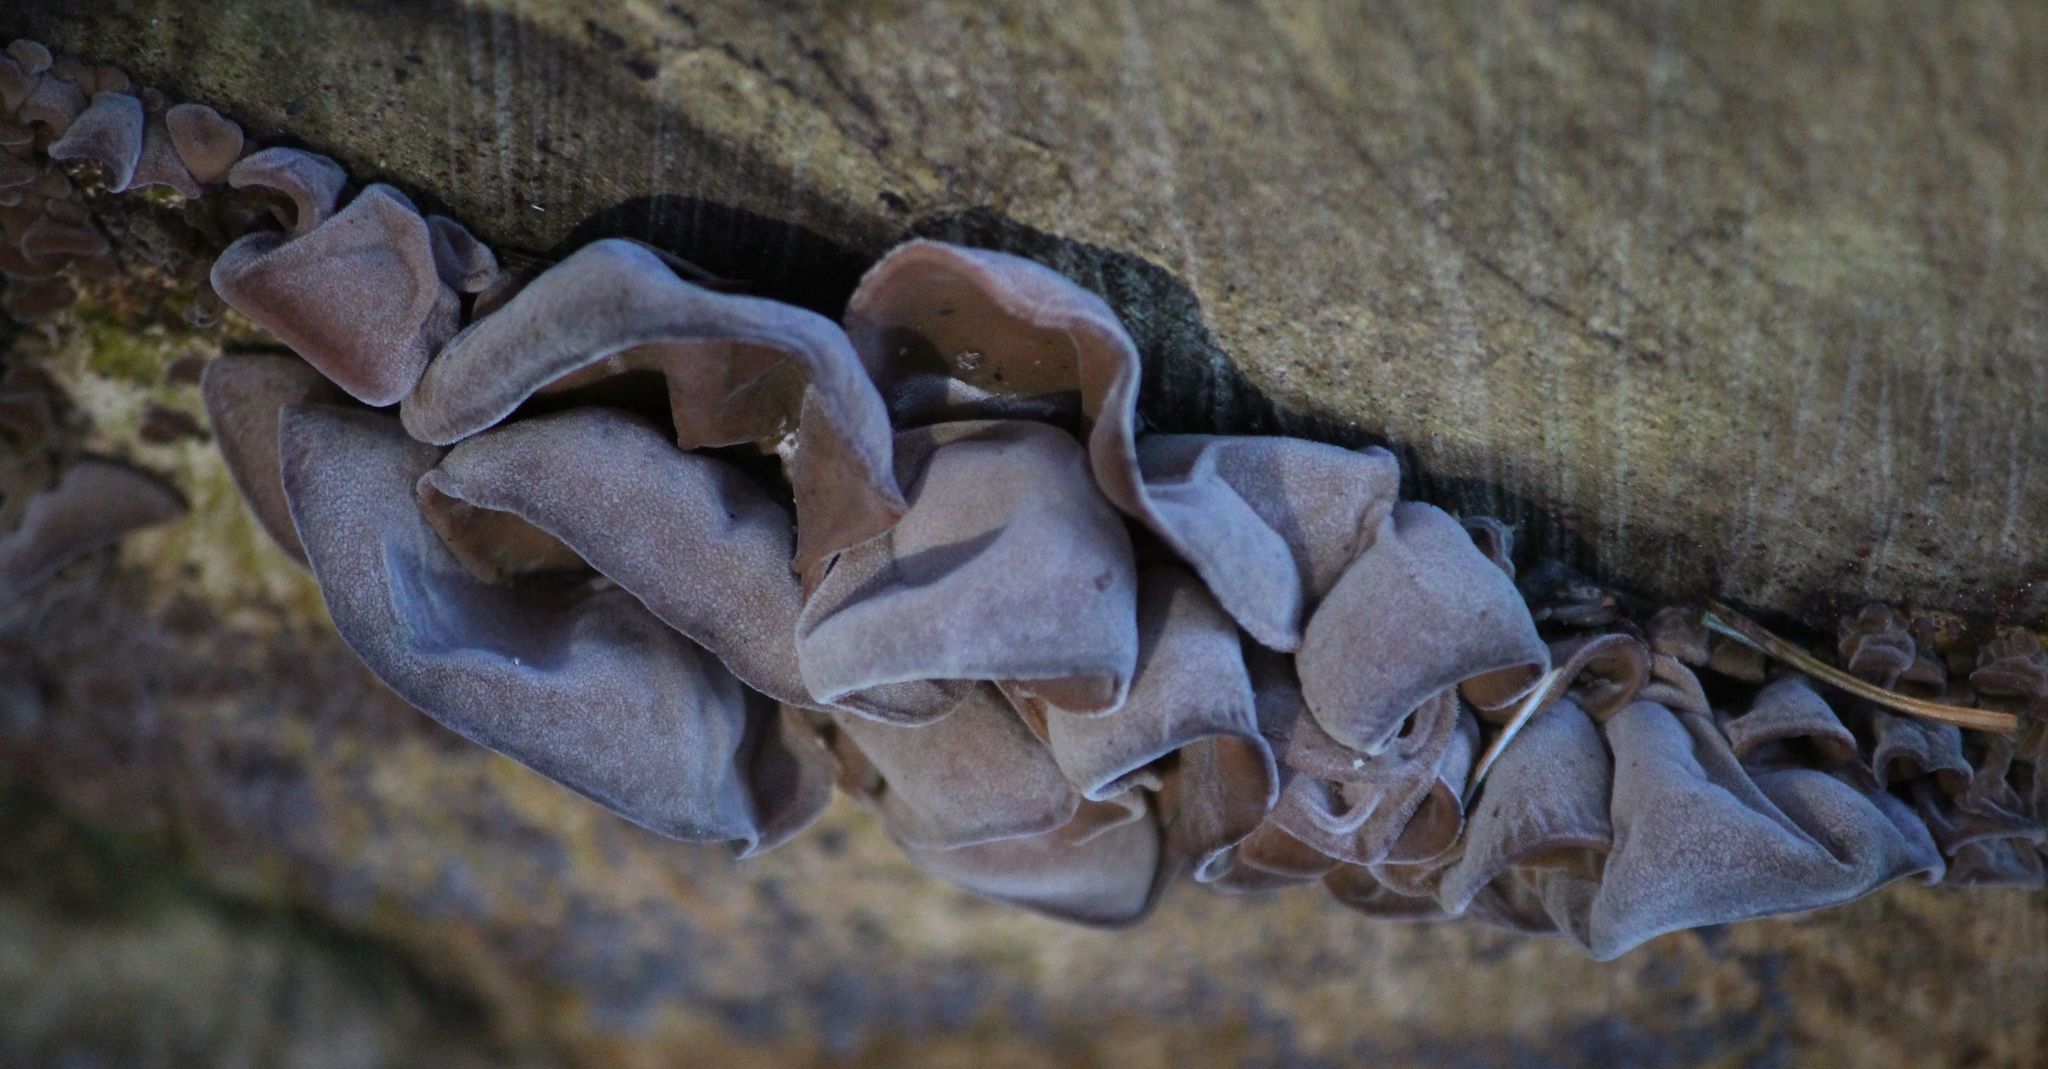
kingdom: Fungi
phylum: Basidiomycota
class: Agaricomycetes
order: Auriculariales
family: Auriculariaceae
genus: Auricularia
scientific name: Auricularia auricula-judae
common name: Jelly ear
